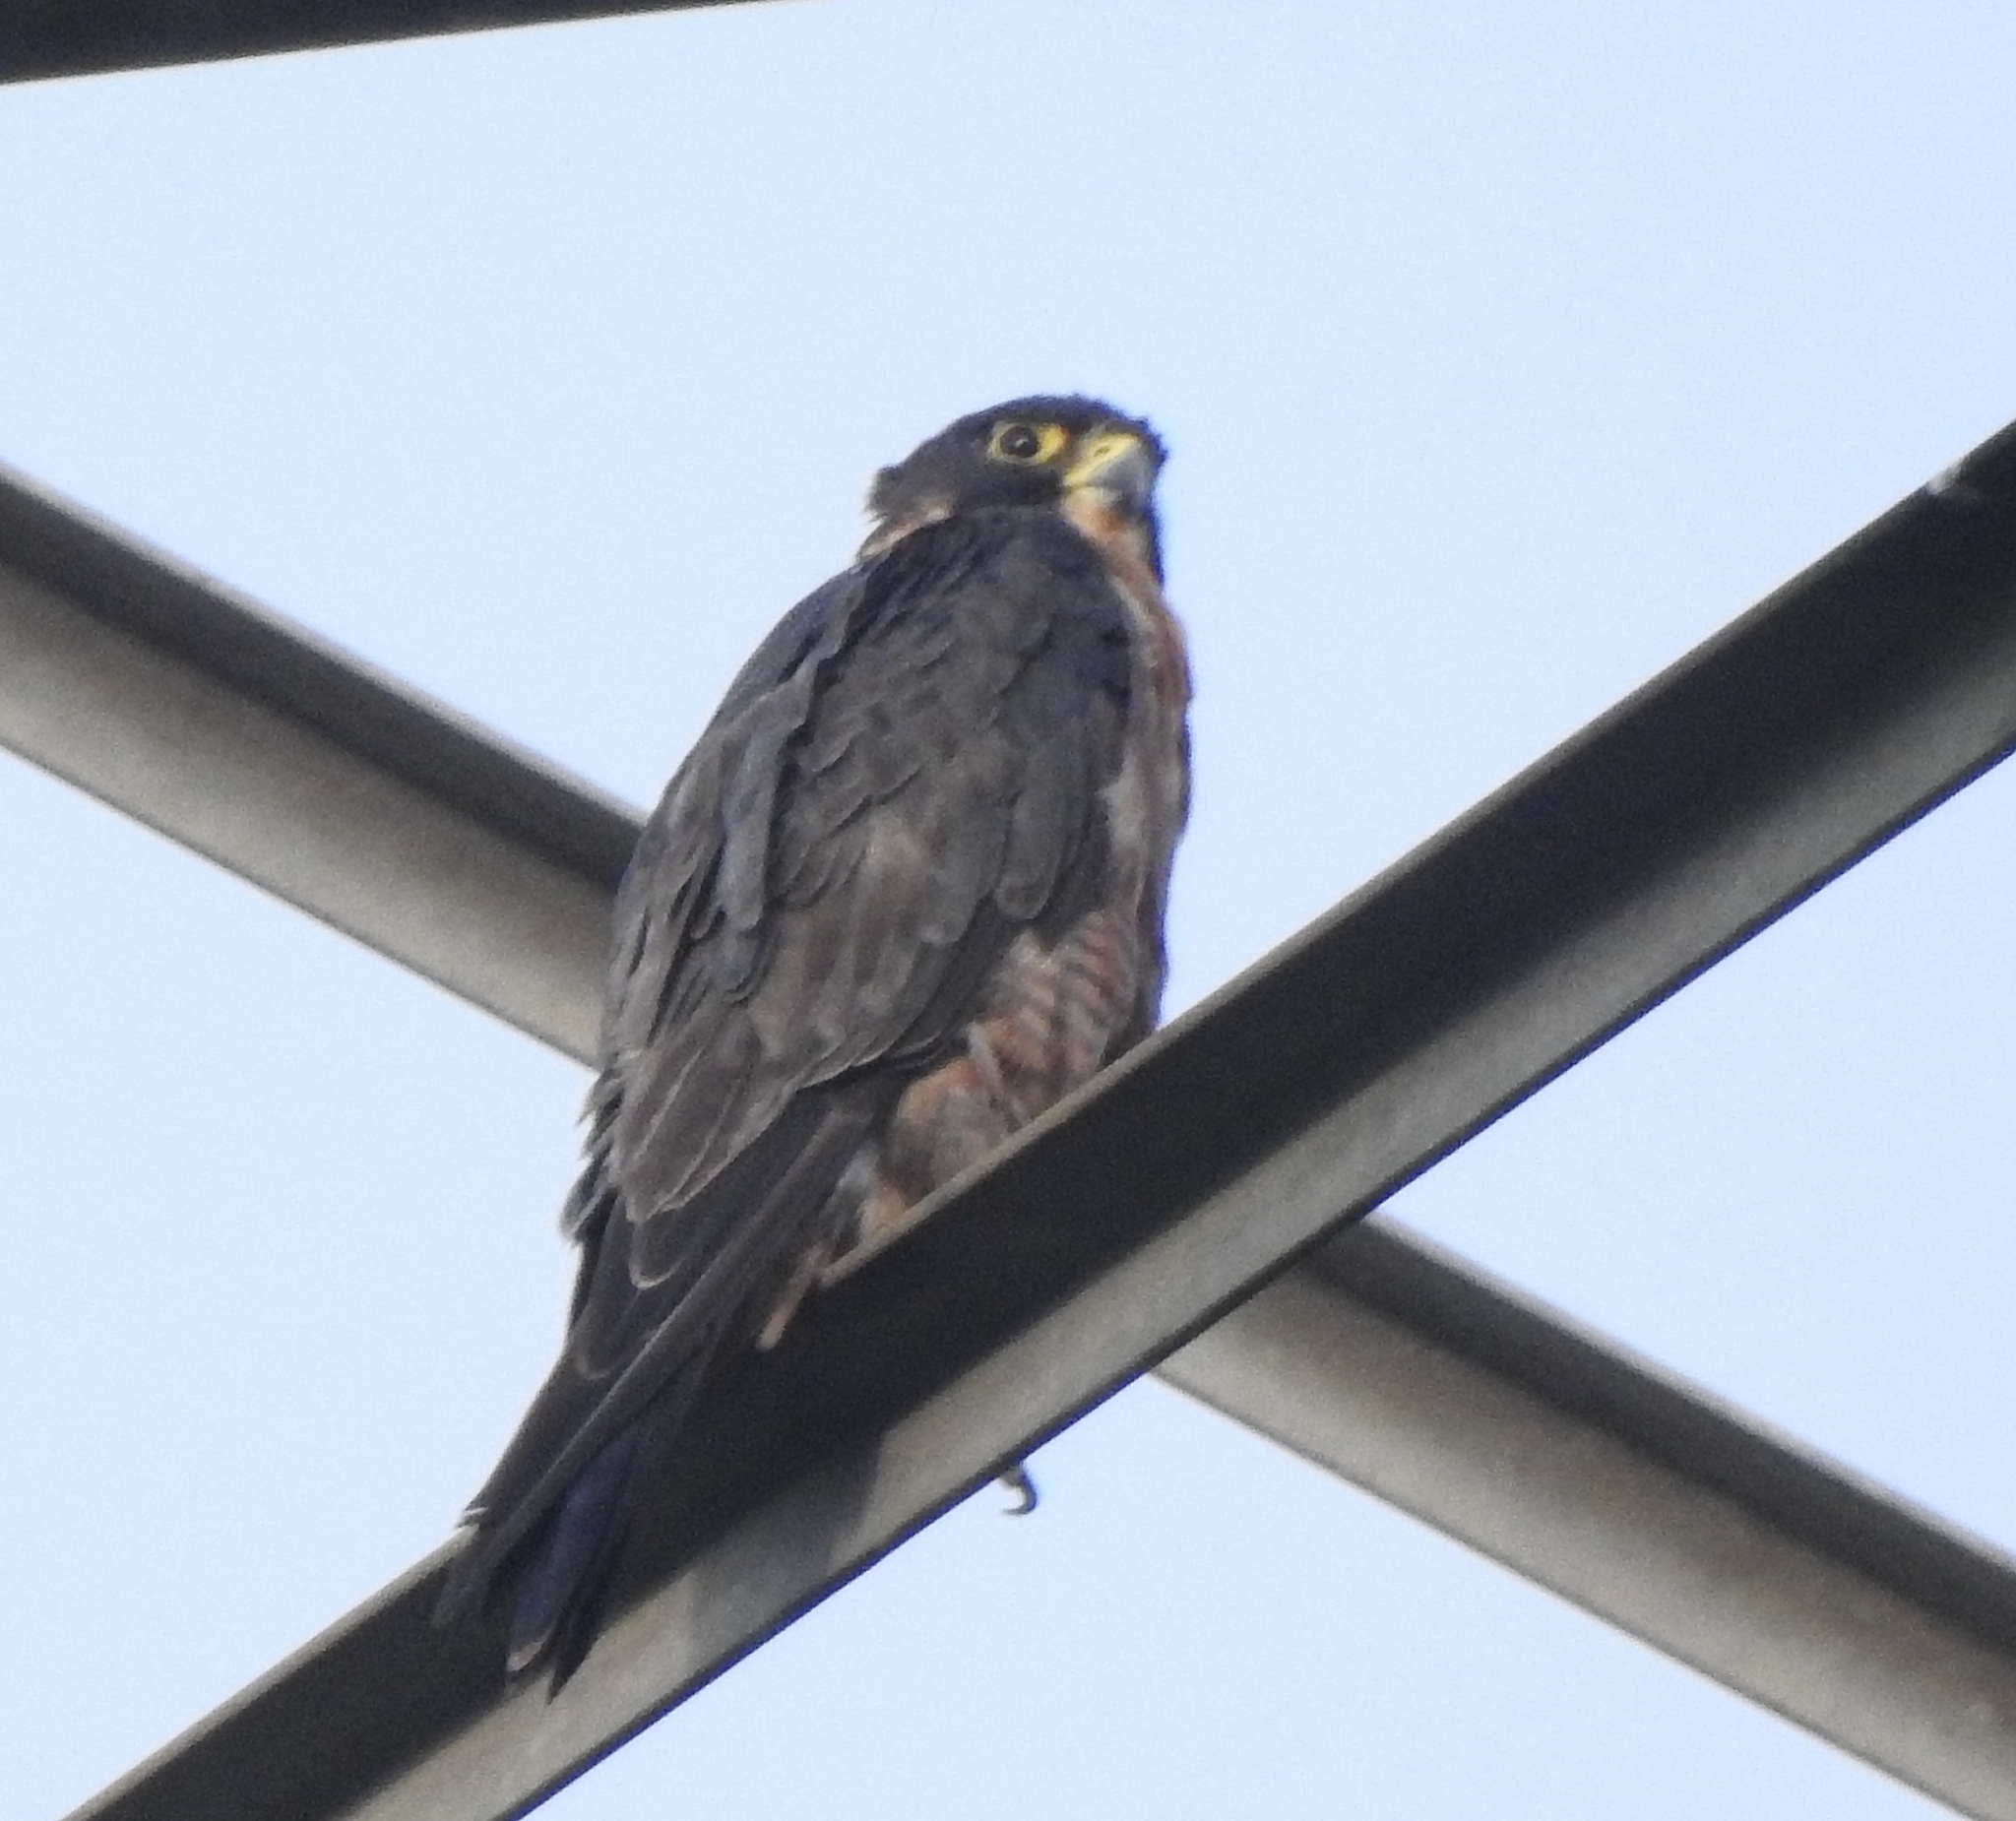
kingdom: Animalia
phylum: Chordata
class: Aves
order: Falconiformes
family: Falconidae
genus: Falco
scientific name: Falco peregrinus
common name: Peregrine falcon
